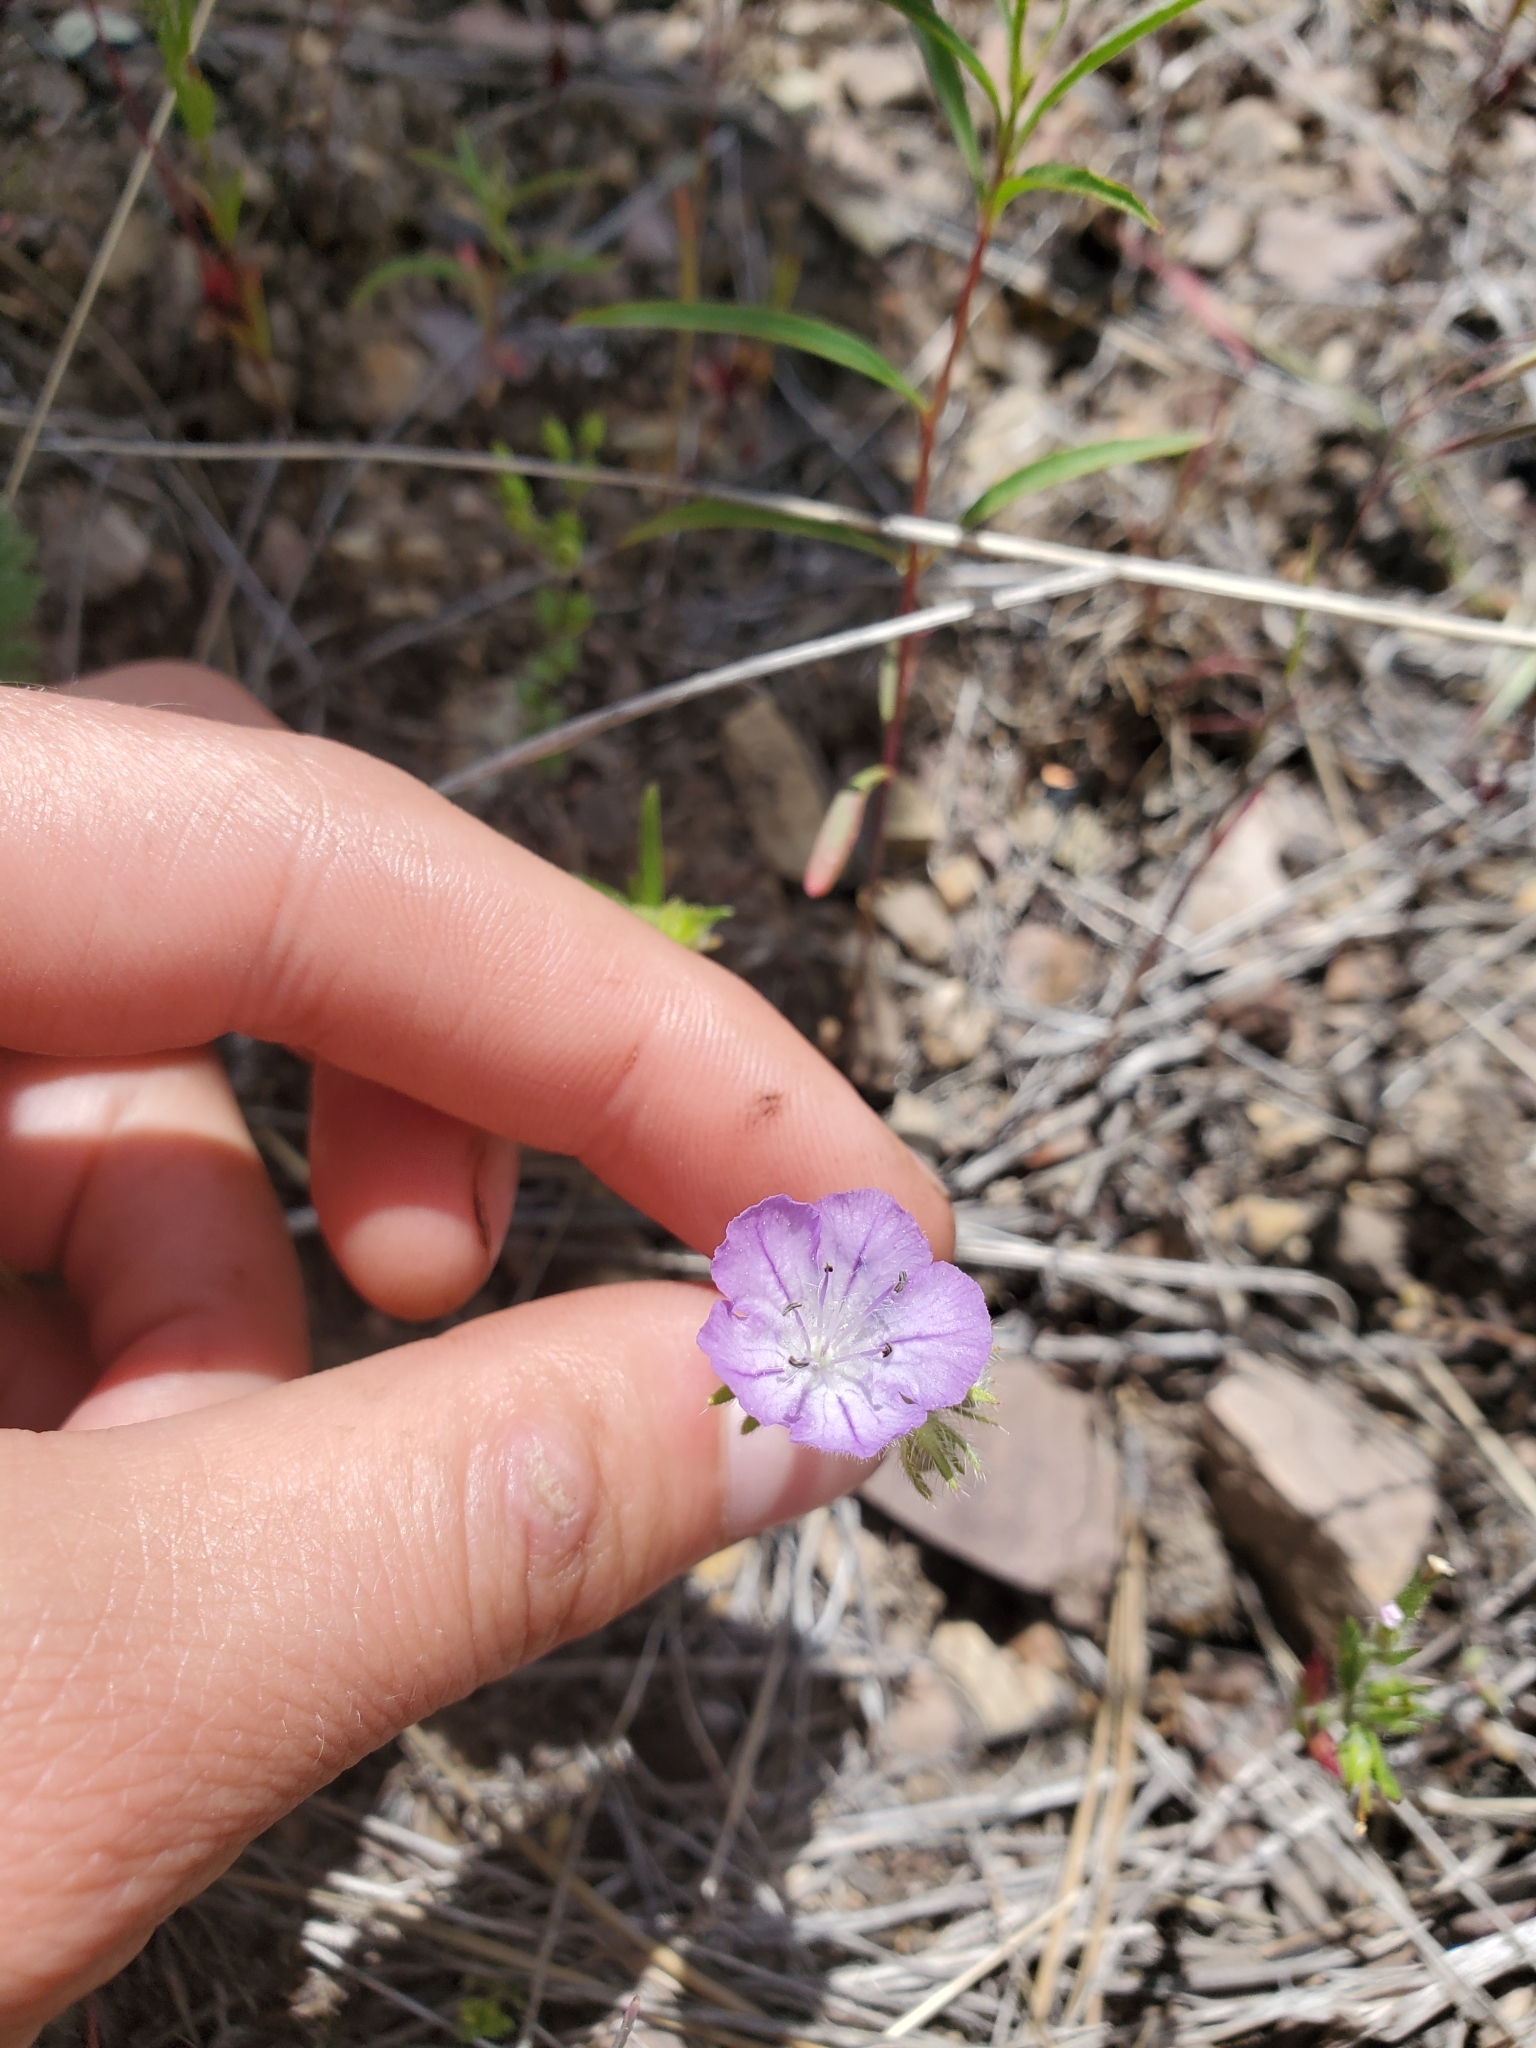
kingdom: Plantae
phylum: Tracheophyta
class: Magnoliopsida
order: Boraginales
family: Hydrophyllaceae
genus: Phacelia
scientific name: Phacelia linearis
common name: Linear-leaved phacelia
